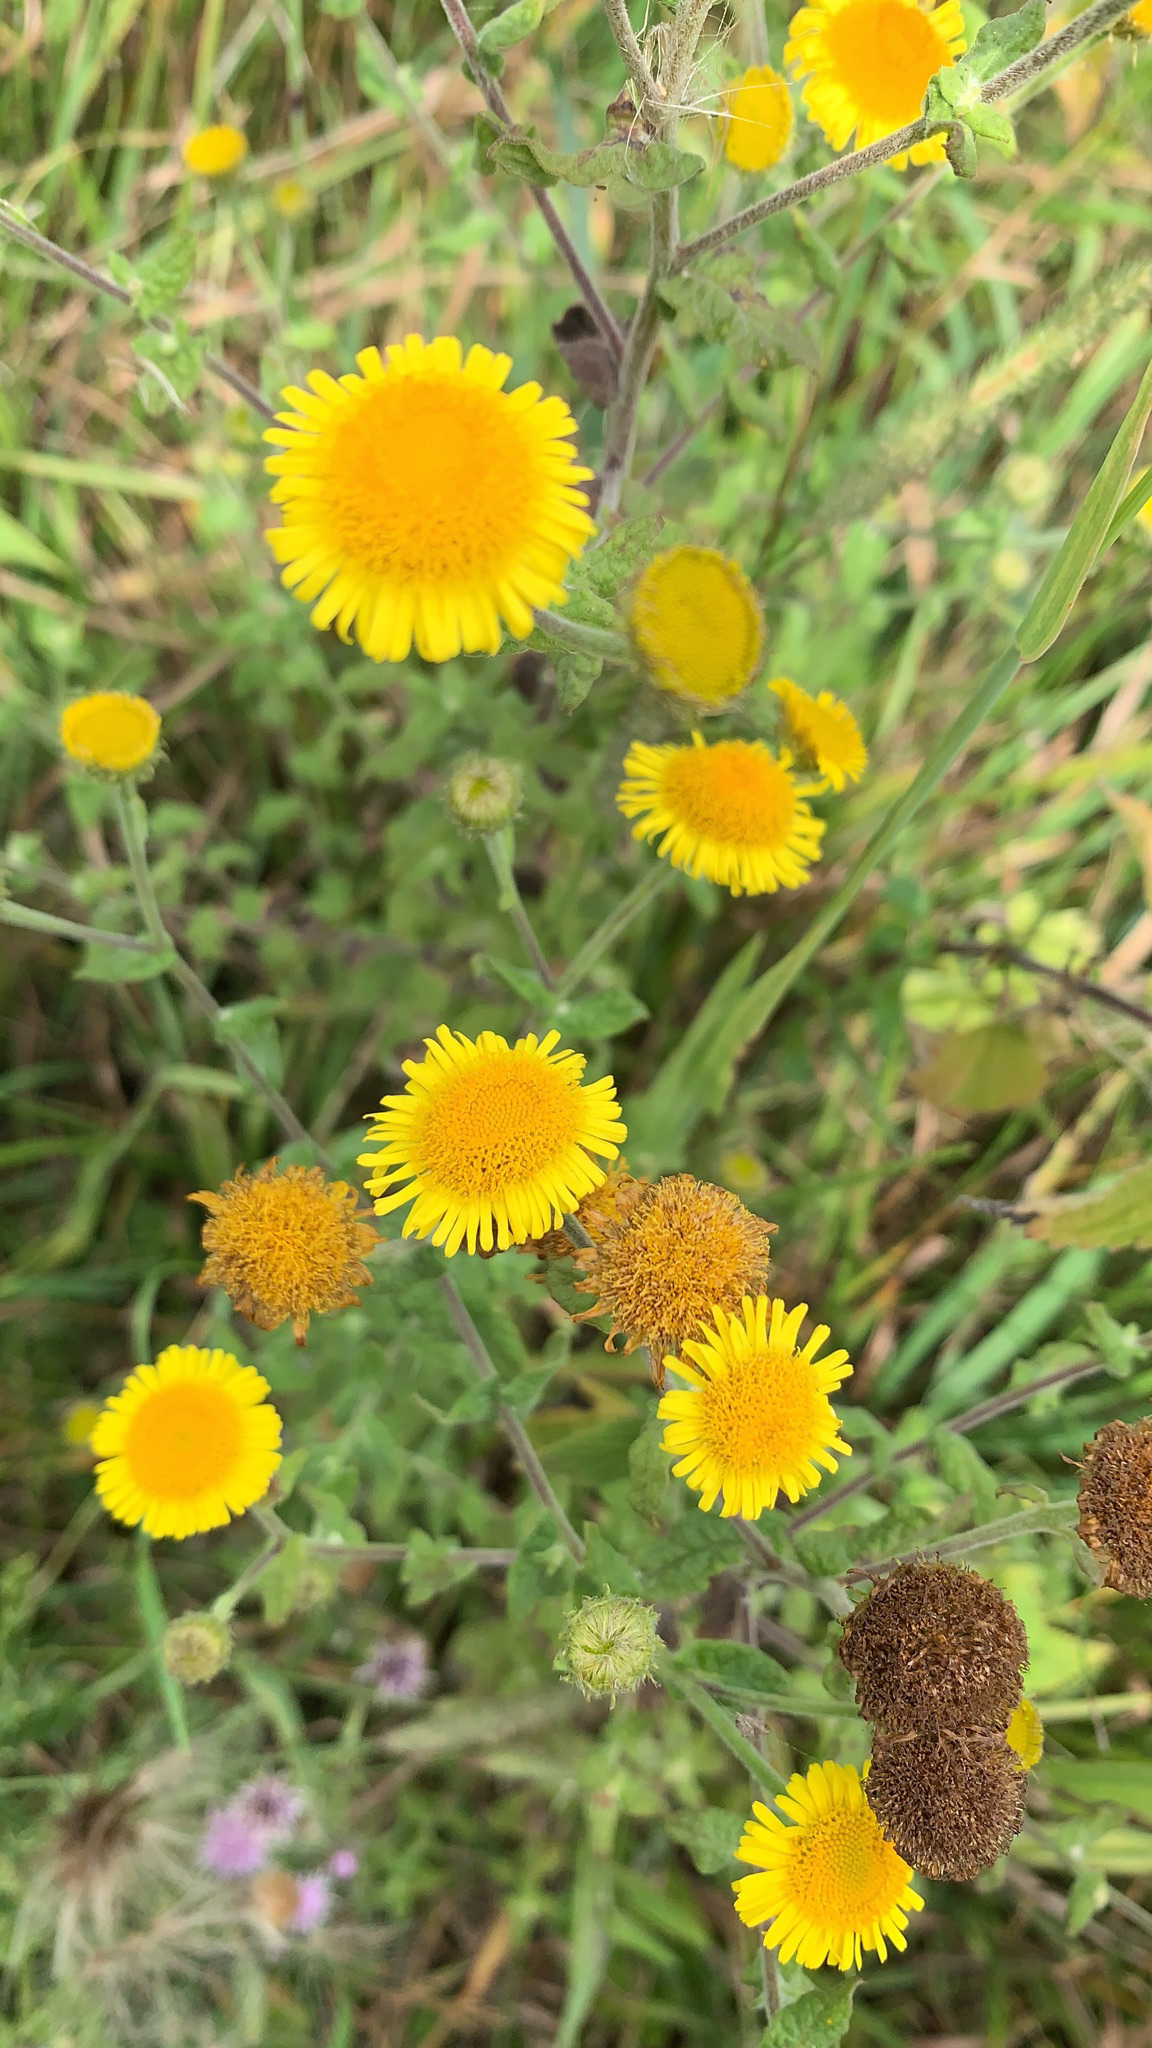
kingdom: Plantae
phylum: Tracheophyta
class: Magnoliopsida
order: Asterales
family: Asteraceae
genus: Pulicaria
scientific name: Pulicaria dysenterica
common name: Common fleabane
